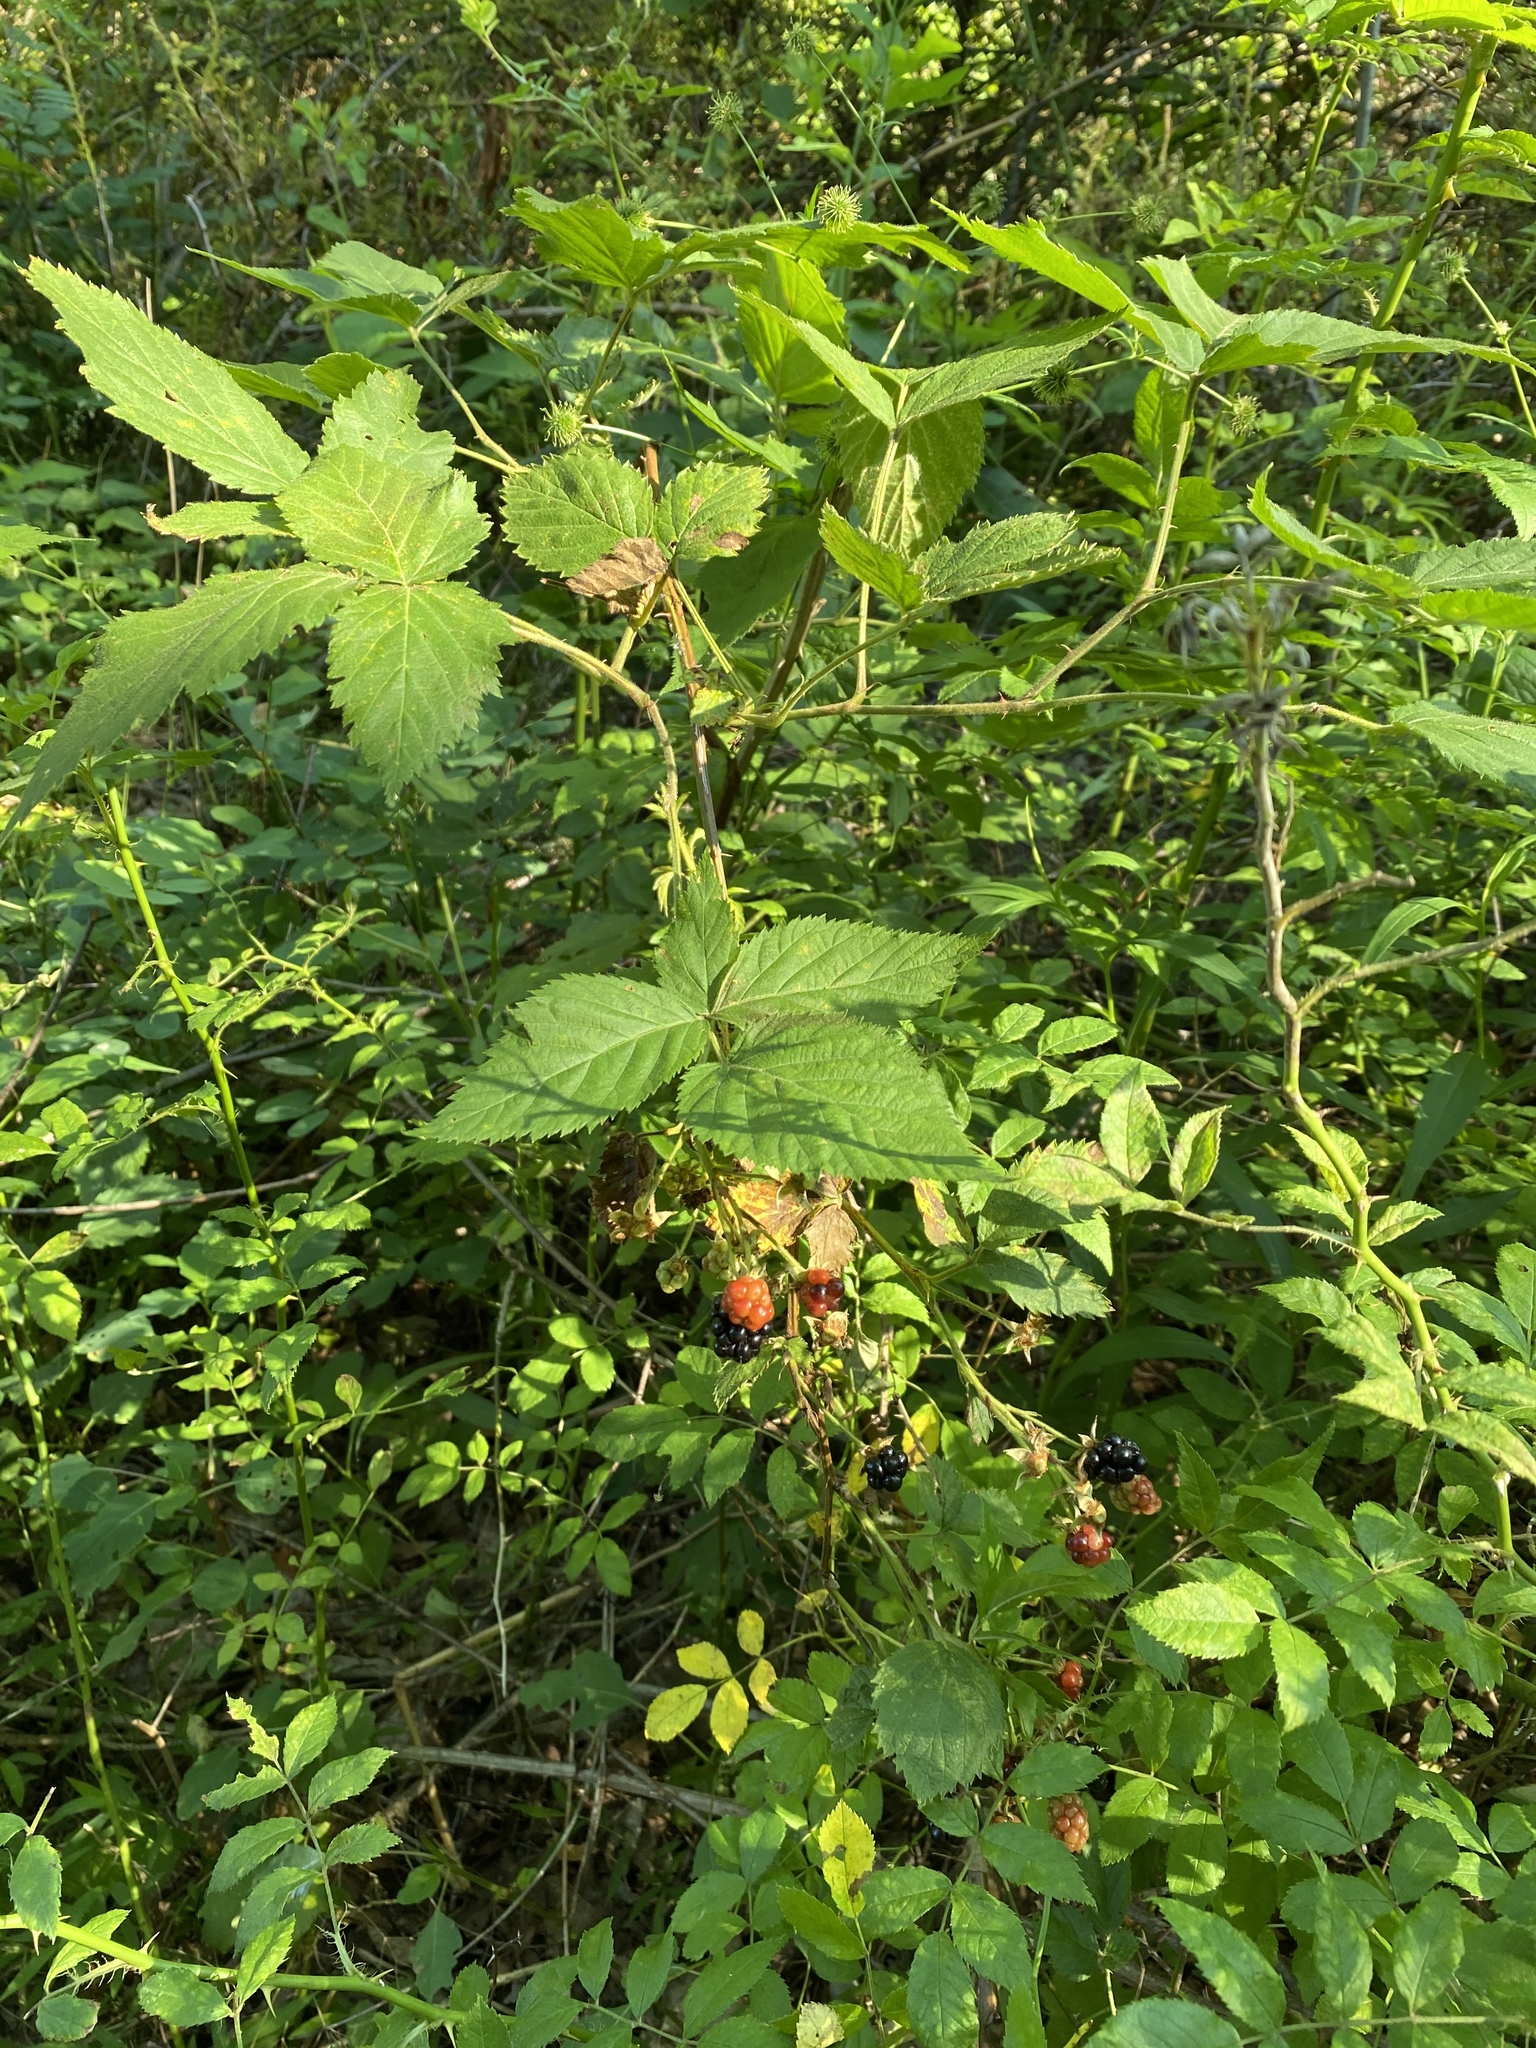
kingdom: Plantae
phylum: Tracheophyta
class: Magnoliopsida
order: Rosales
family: Rosaceae
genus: Rubus
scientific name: Rubus allegheniensis
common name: Allegheny blackberry
